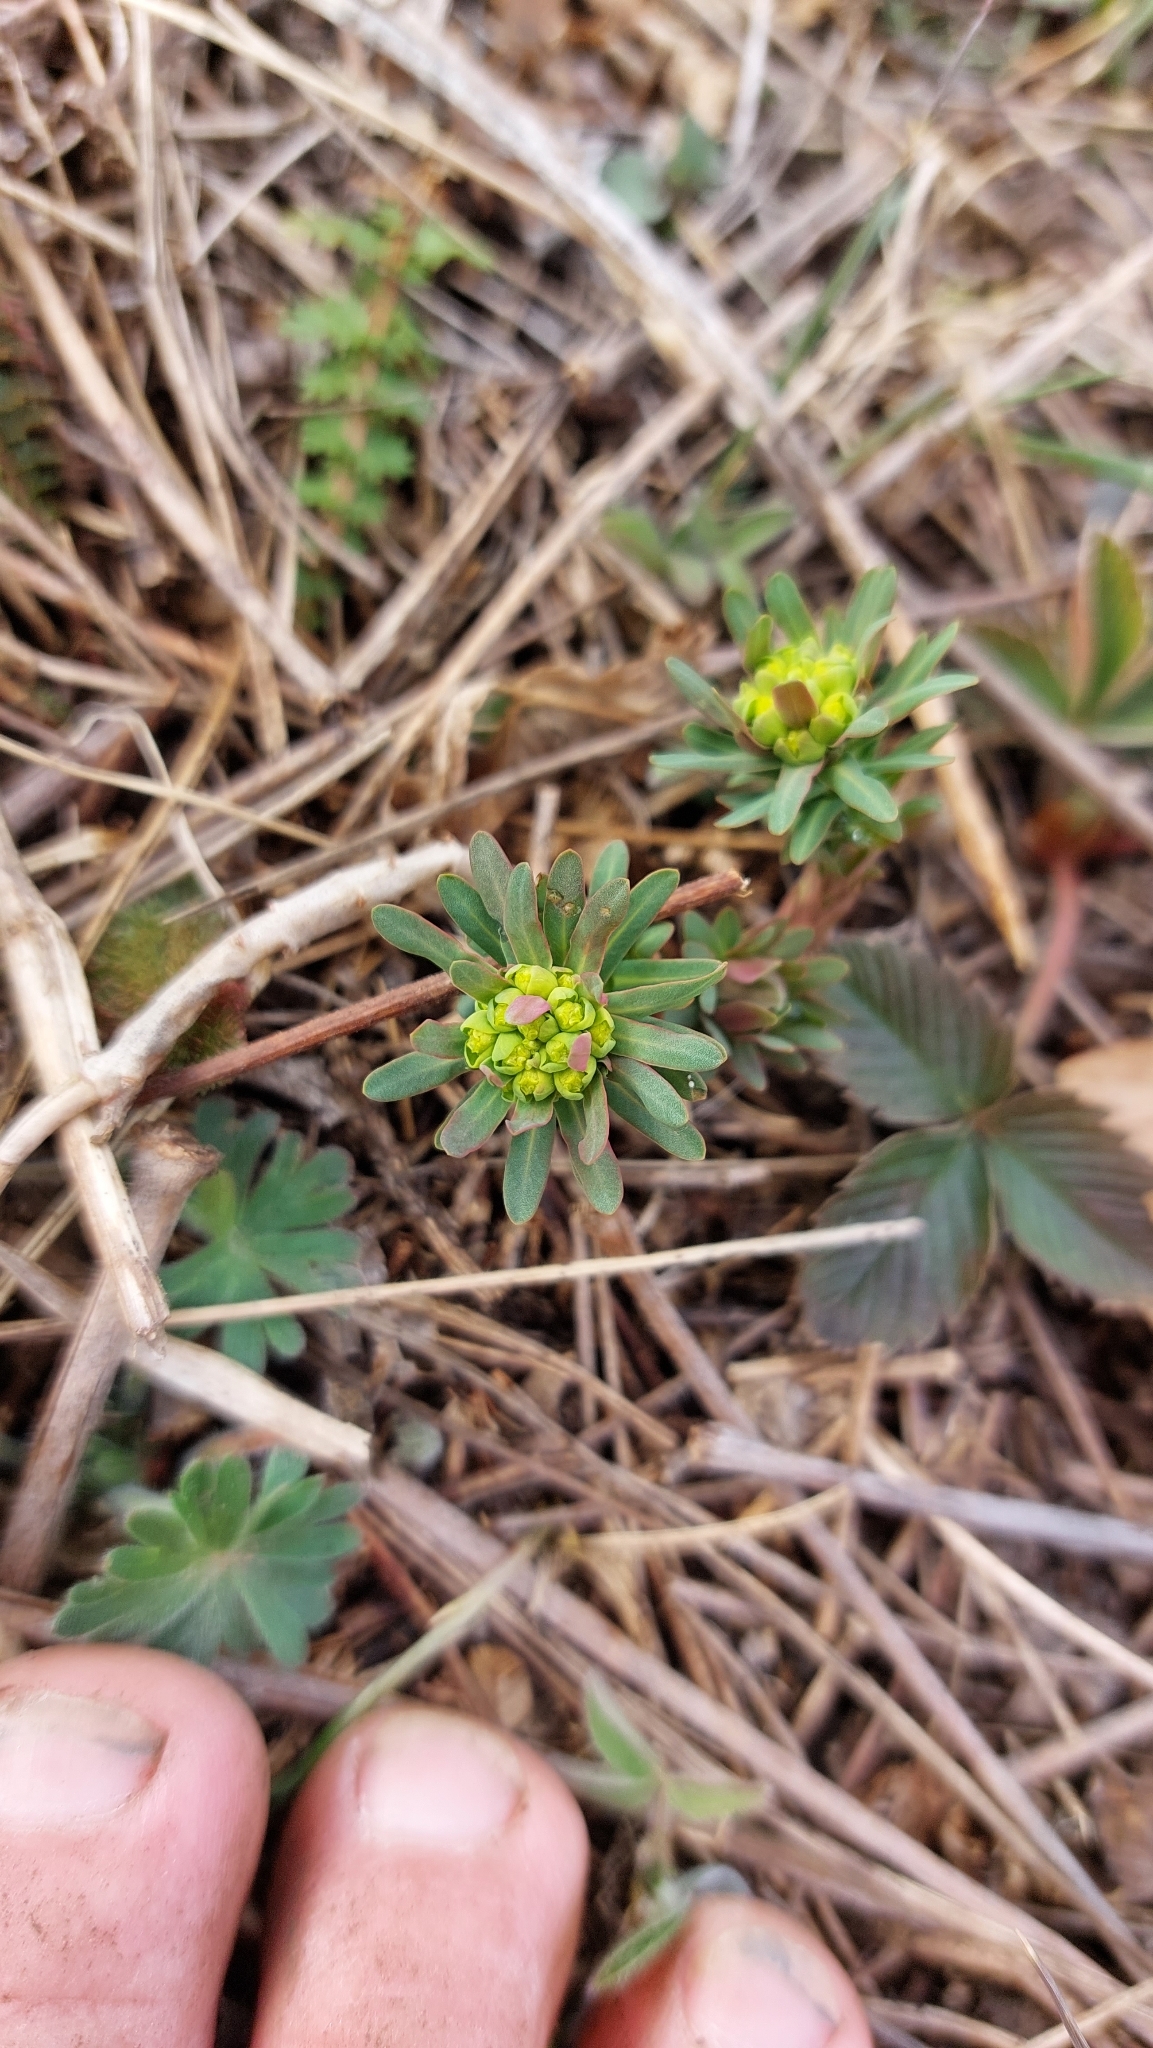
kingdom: Plantae
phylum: Tracheophyta
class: Magnoliopsida
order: Malpighiales
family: Euphorbiaceae
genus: Euphorbia
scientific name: Euphorbia cyparissias
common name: Cypress spurge
